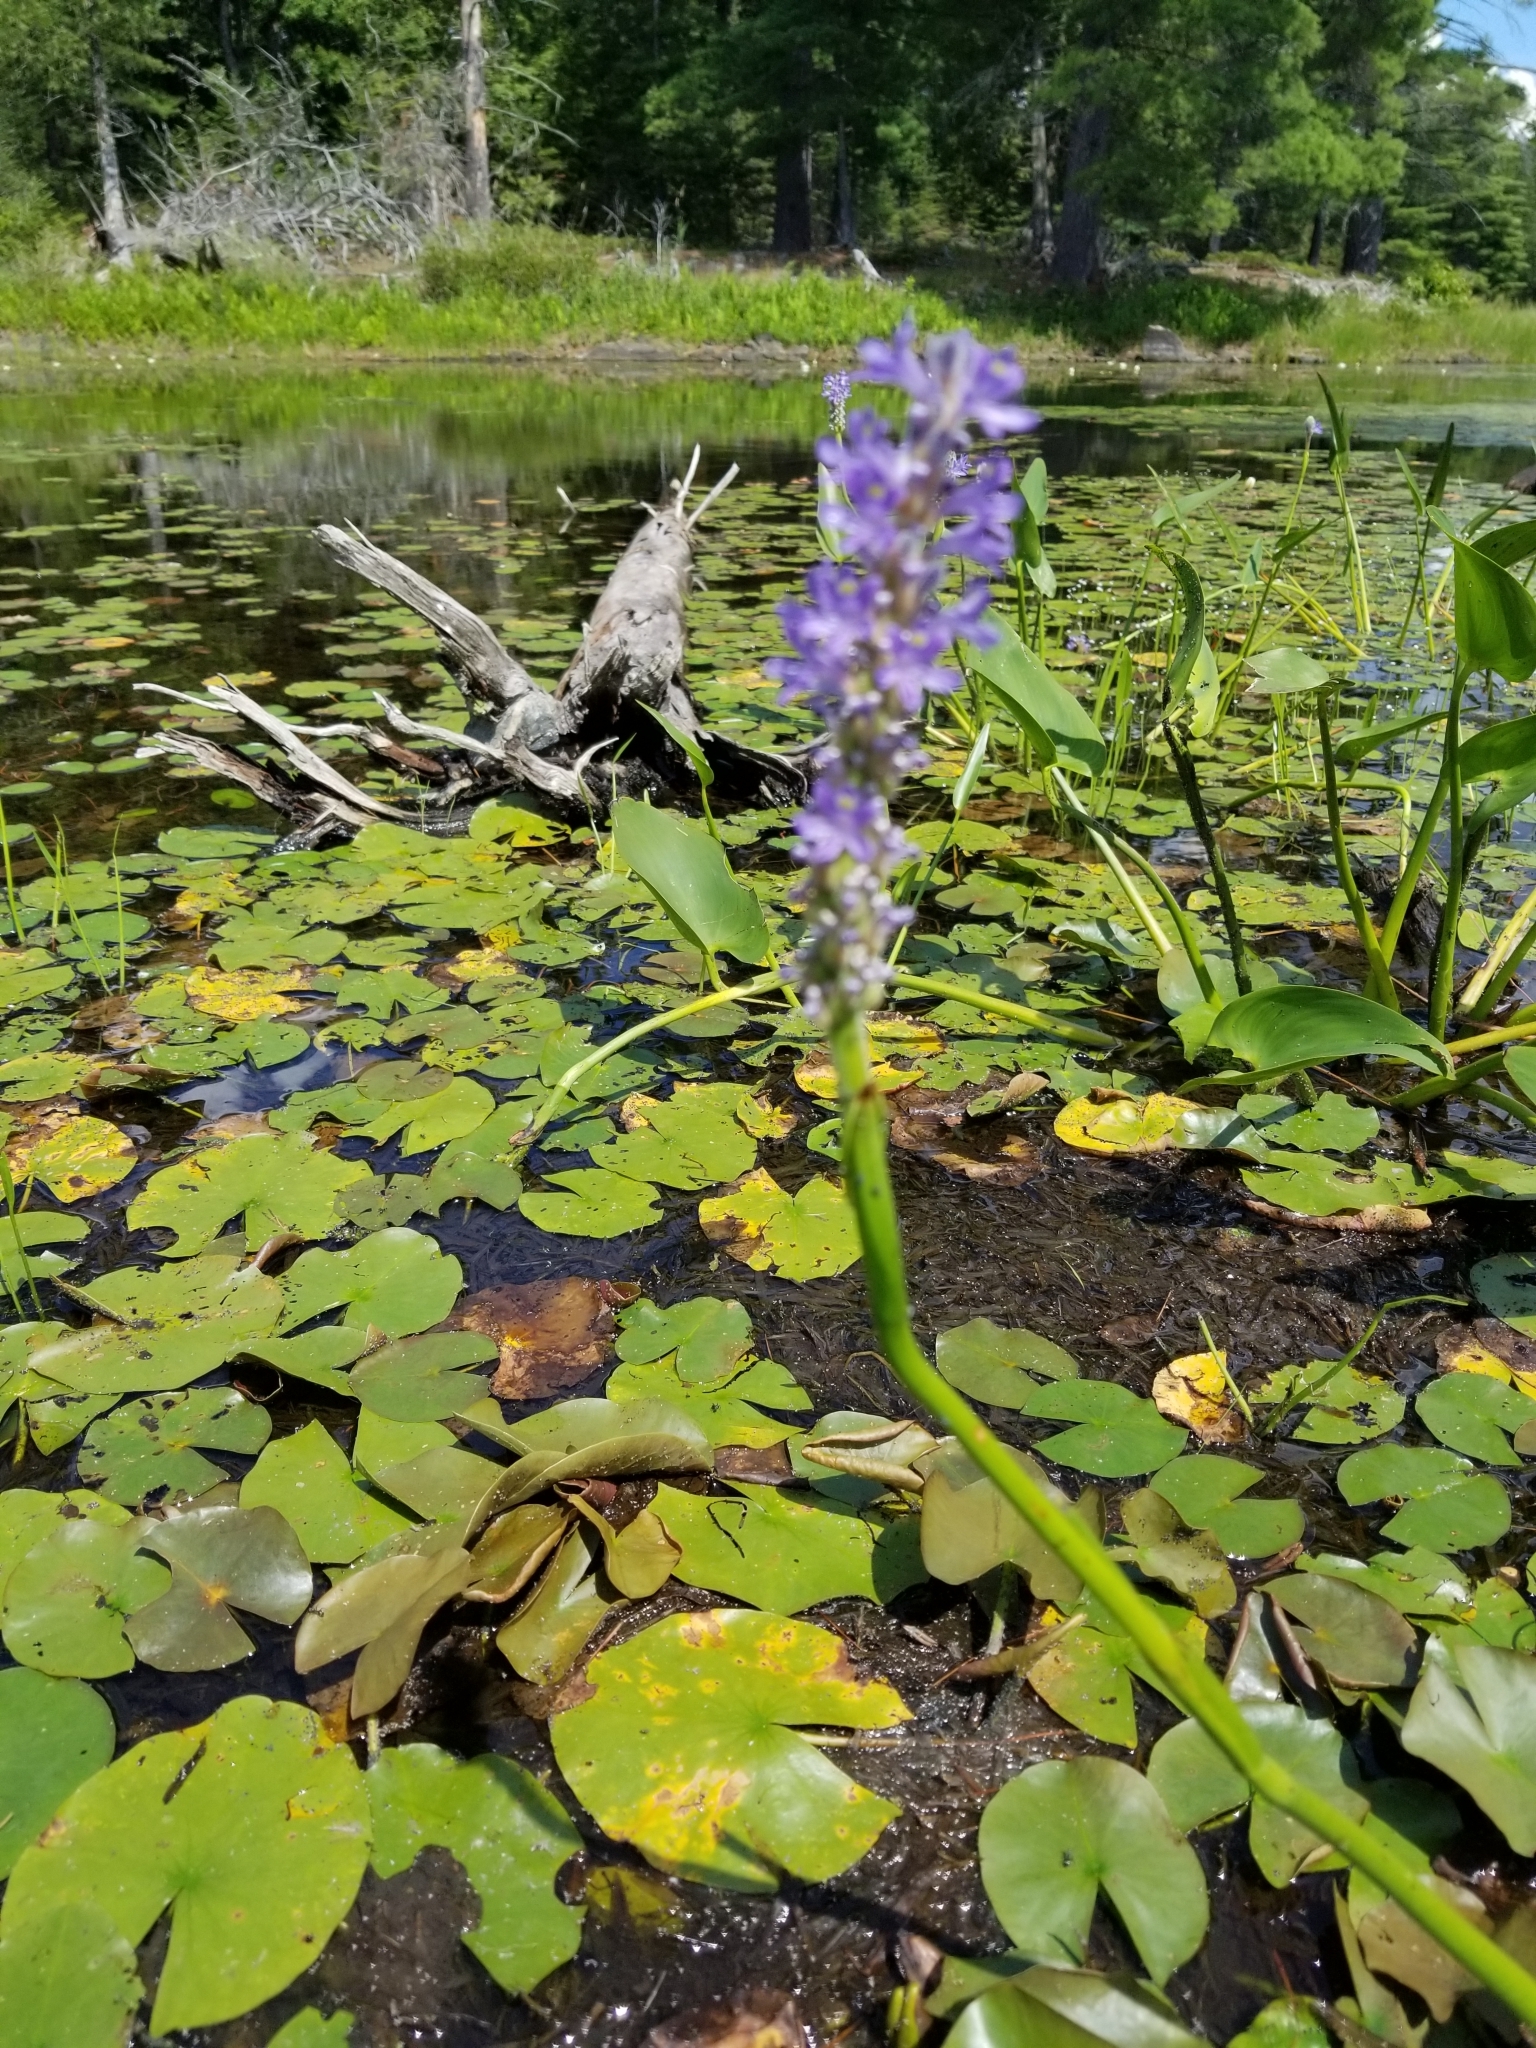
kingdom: Plantae
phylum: Tracheophyta
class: Liliopsida
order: Commelinales
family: Pontederiaceae
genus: Pontederia
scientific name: Pontederia cordata
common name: Pickerelweed
